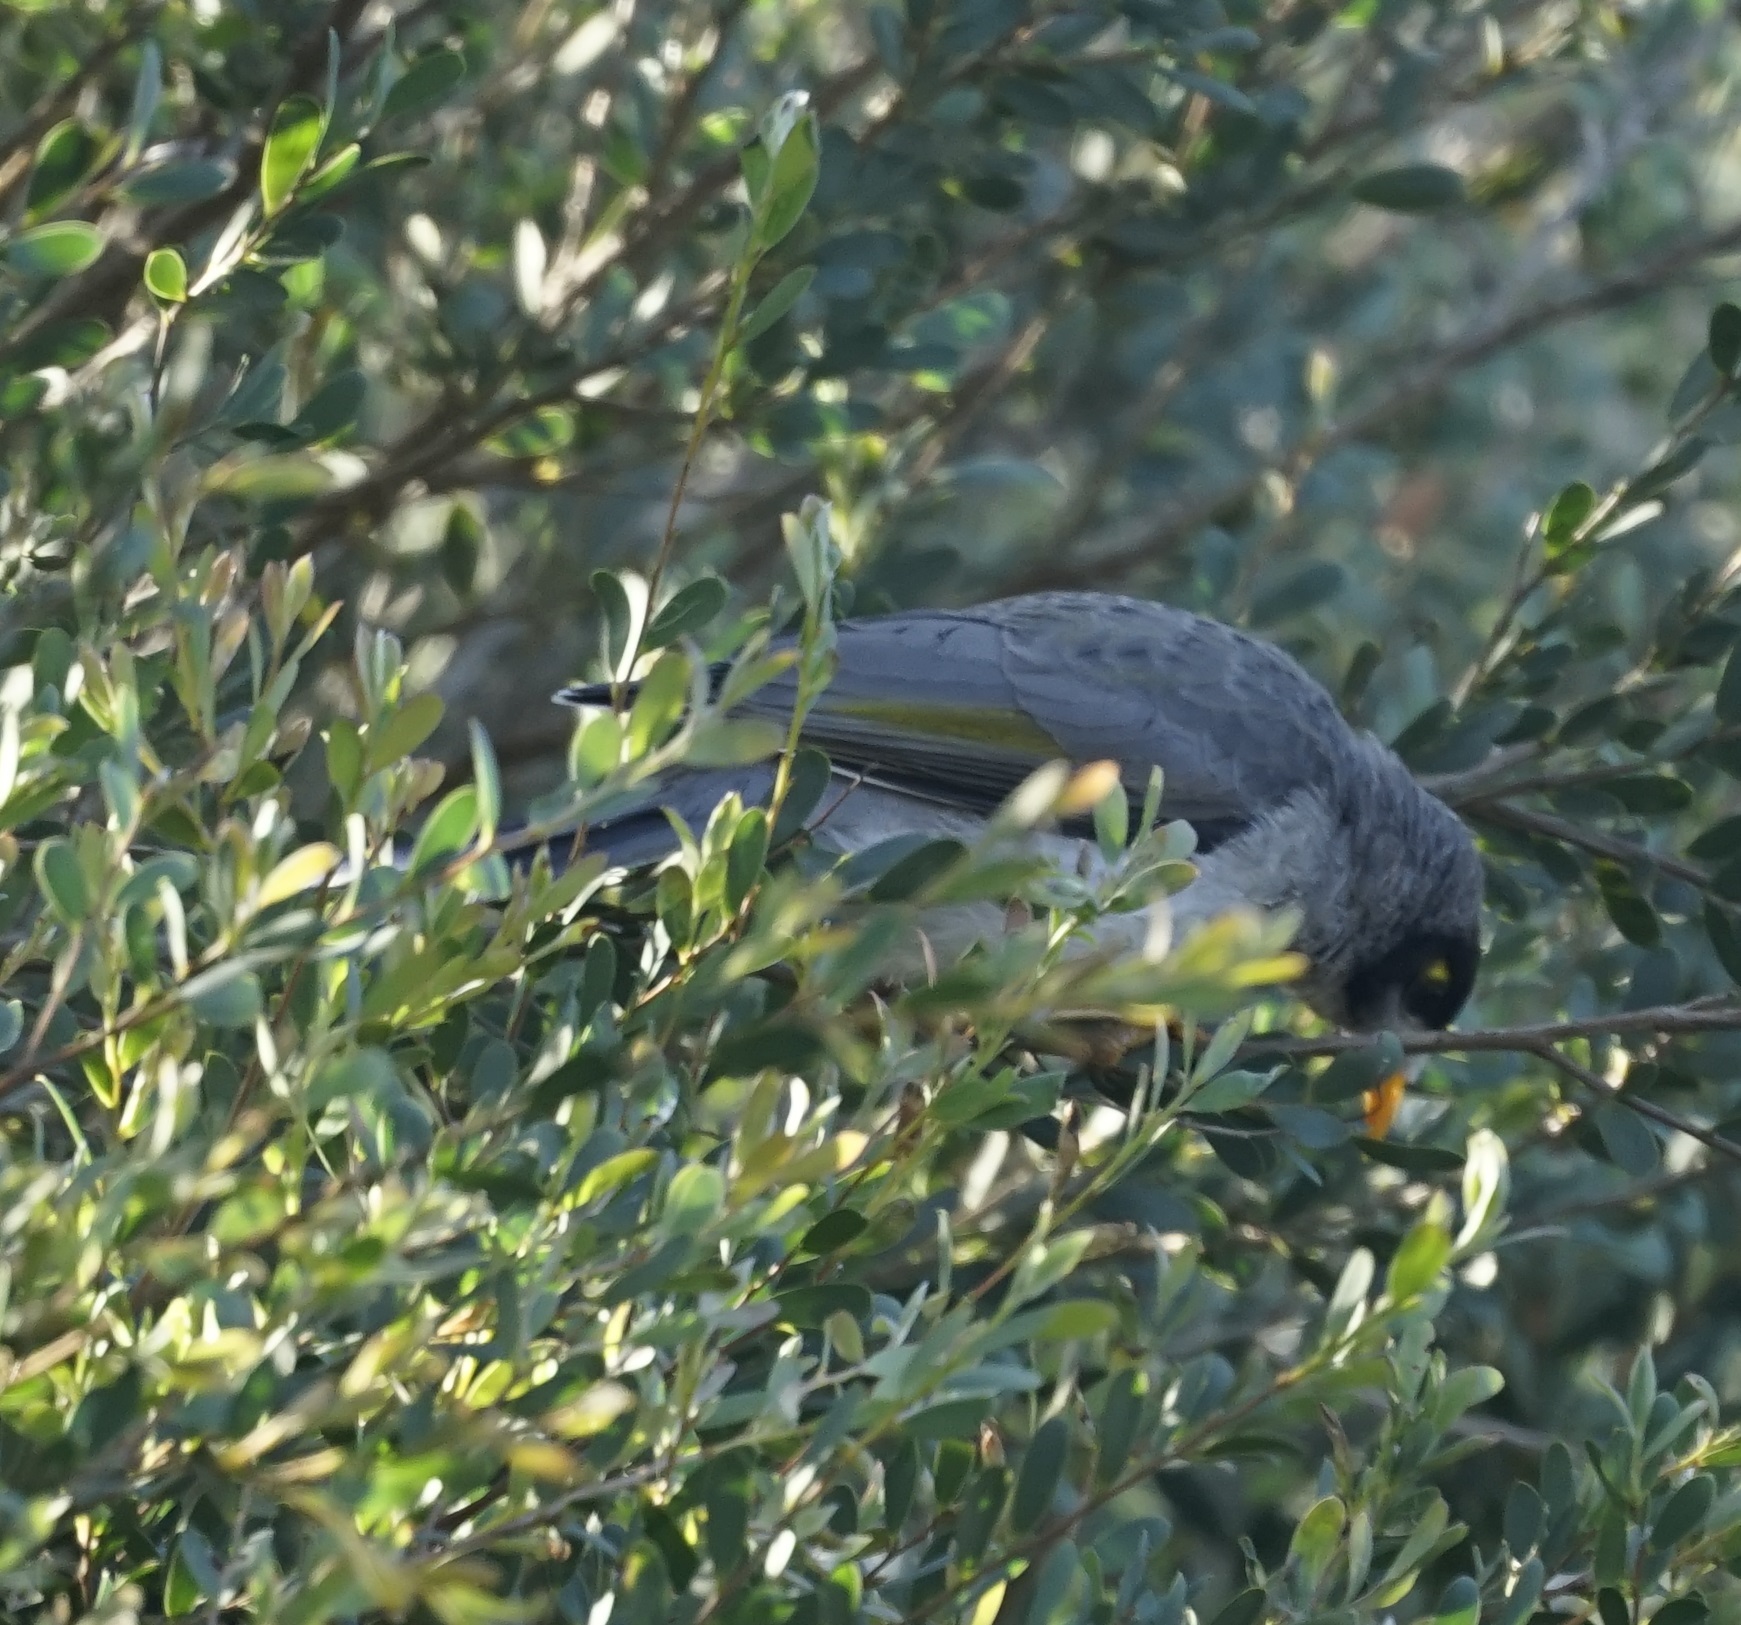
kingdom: Animalia
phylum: Chordata
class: Aves
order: Passeriformes
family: Meliphagidae
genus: Manorina
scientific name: Manorina melanocephala
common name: Noisy miner
